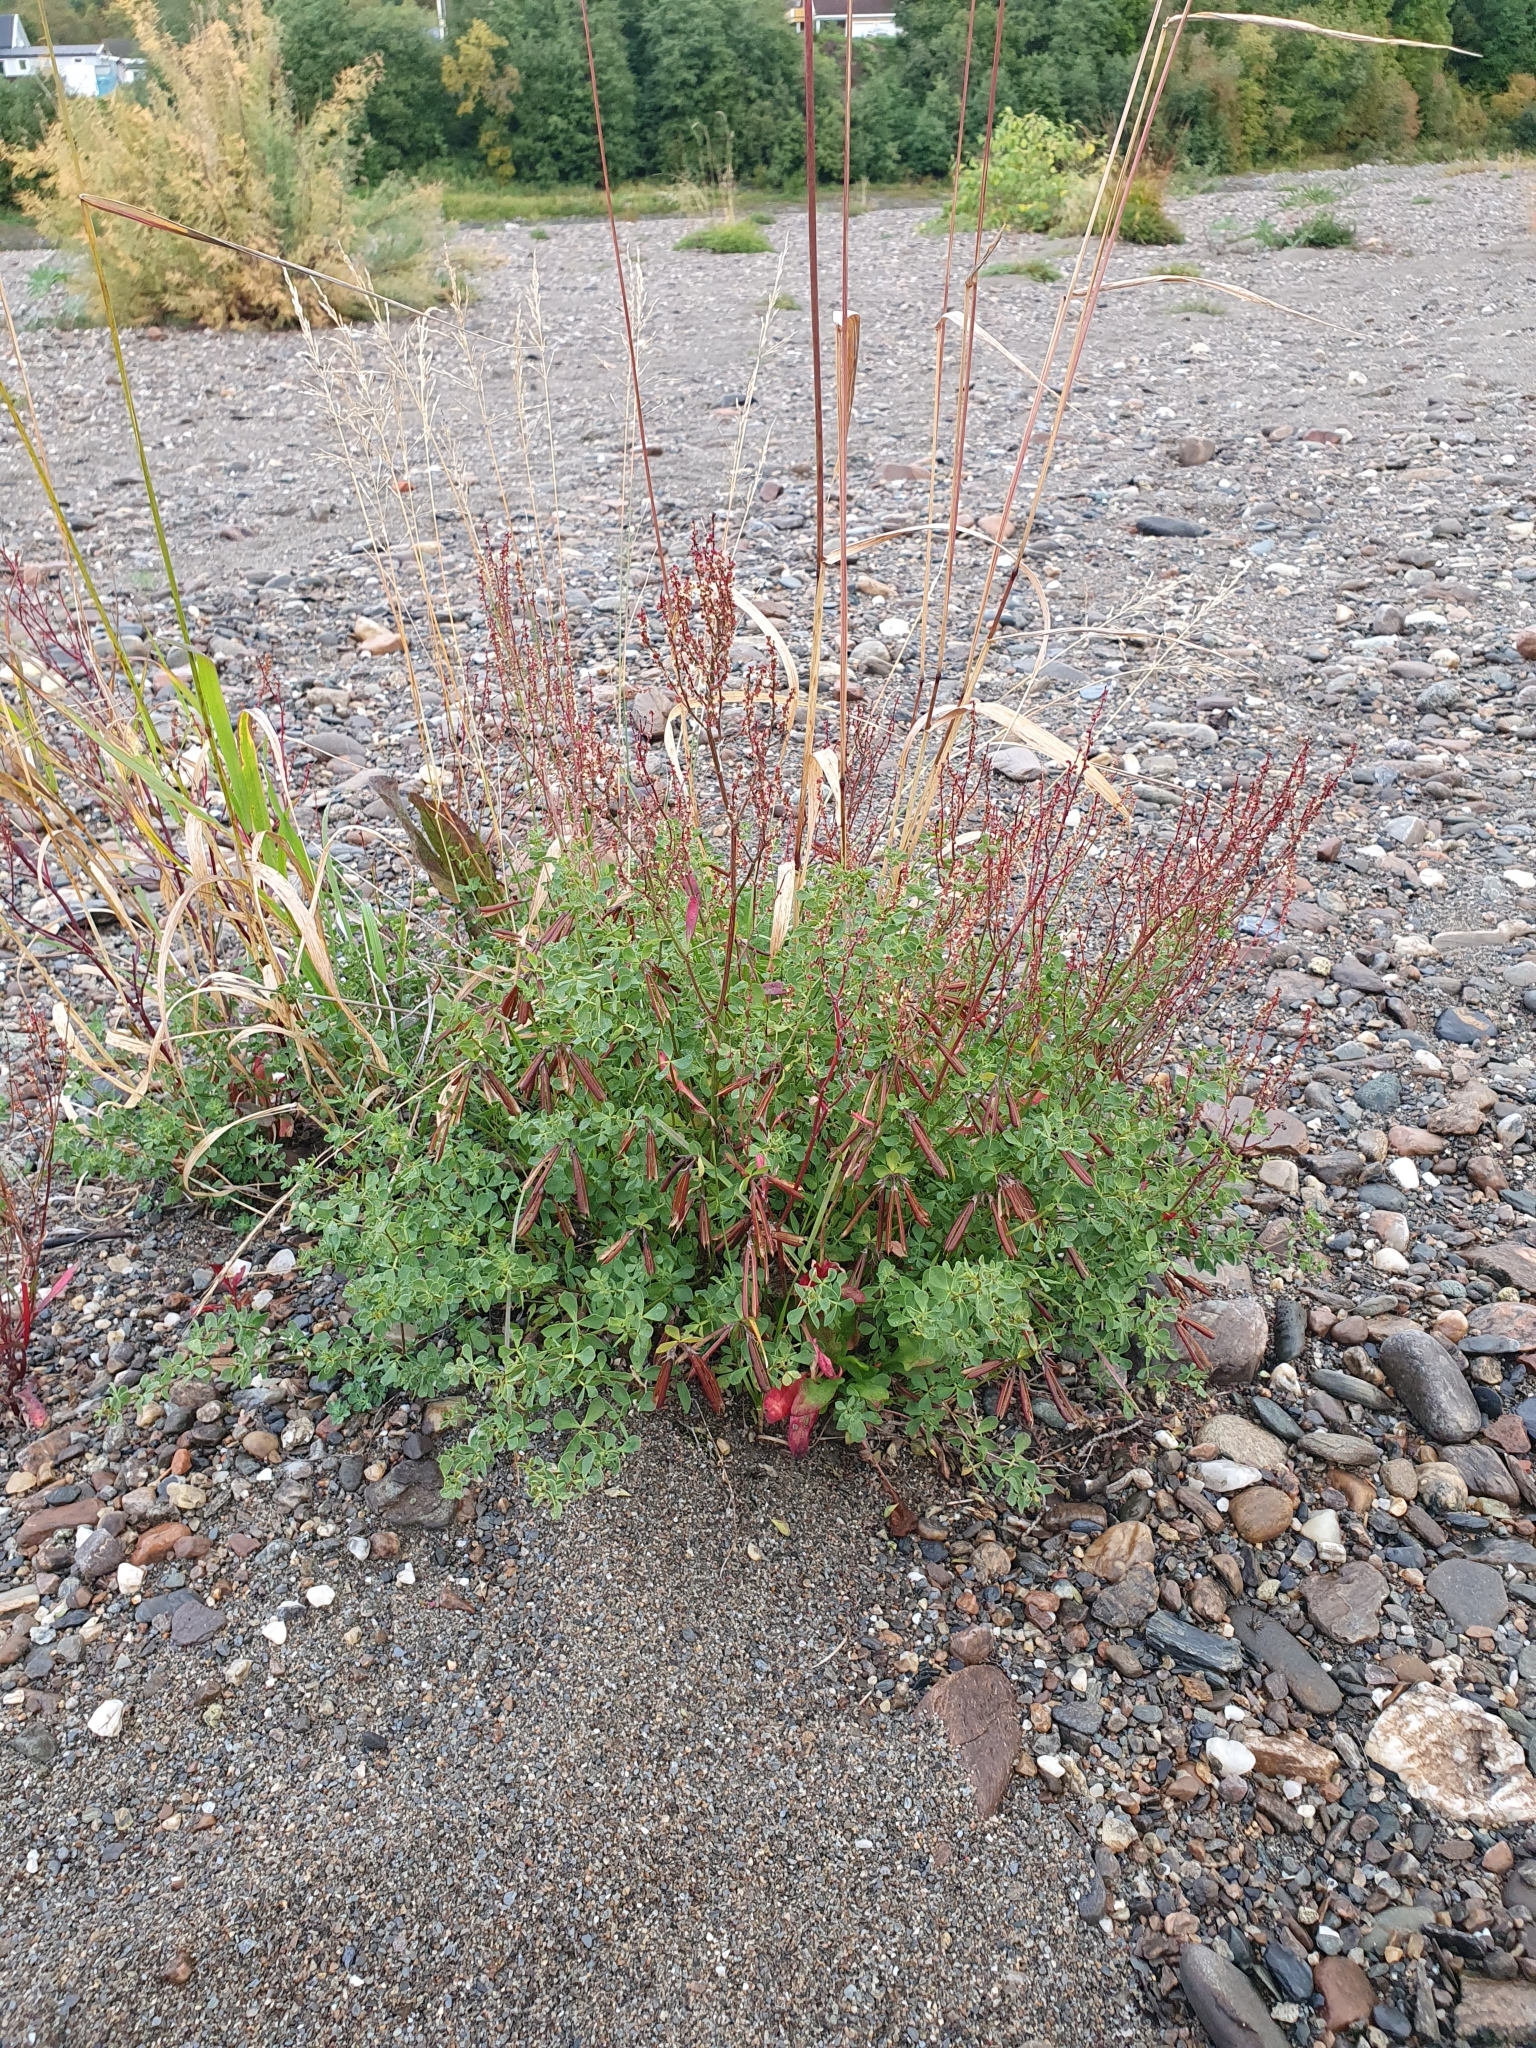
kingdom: Plantae
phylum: Tracheophyta
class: Magnoliopsida
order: Fabales
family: Fabaceae
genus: Lotus
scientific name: Lotus corniculatus
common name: Common bird's-foot-trefoil
